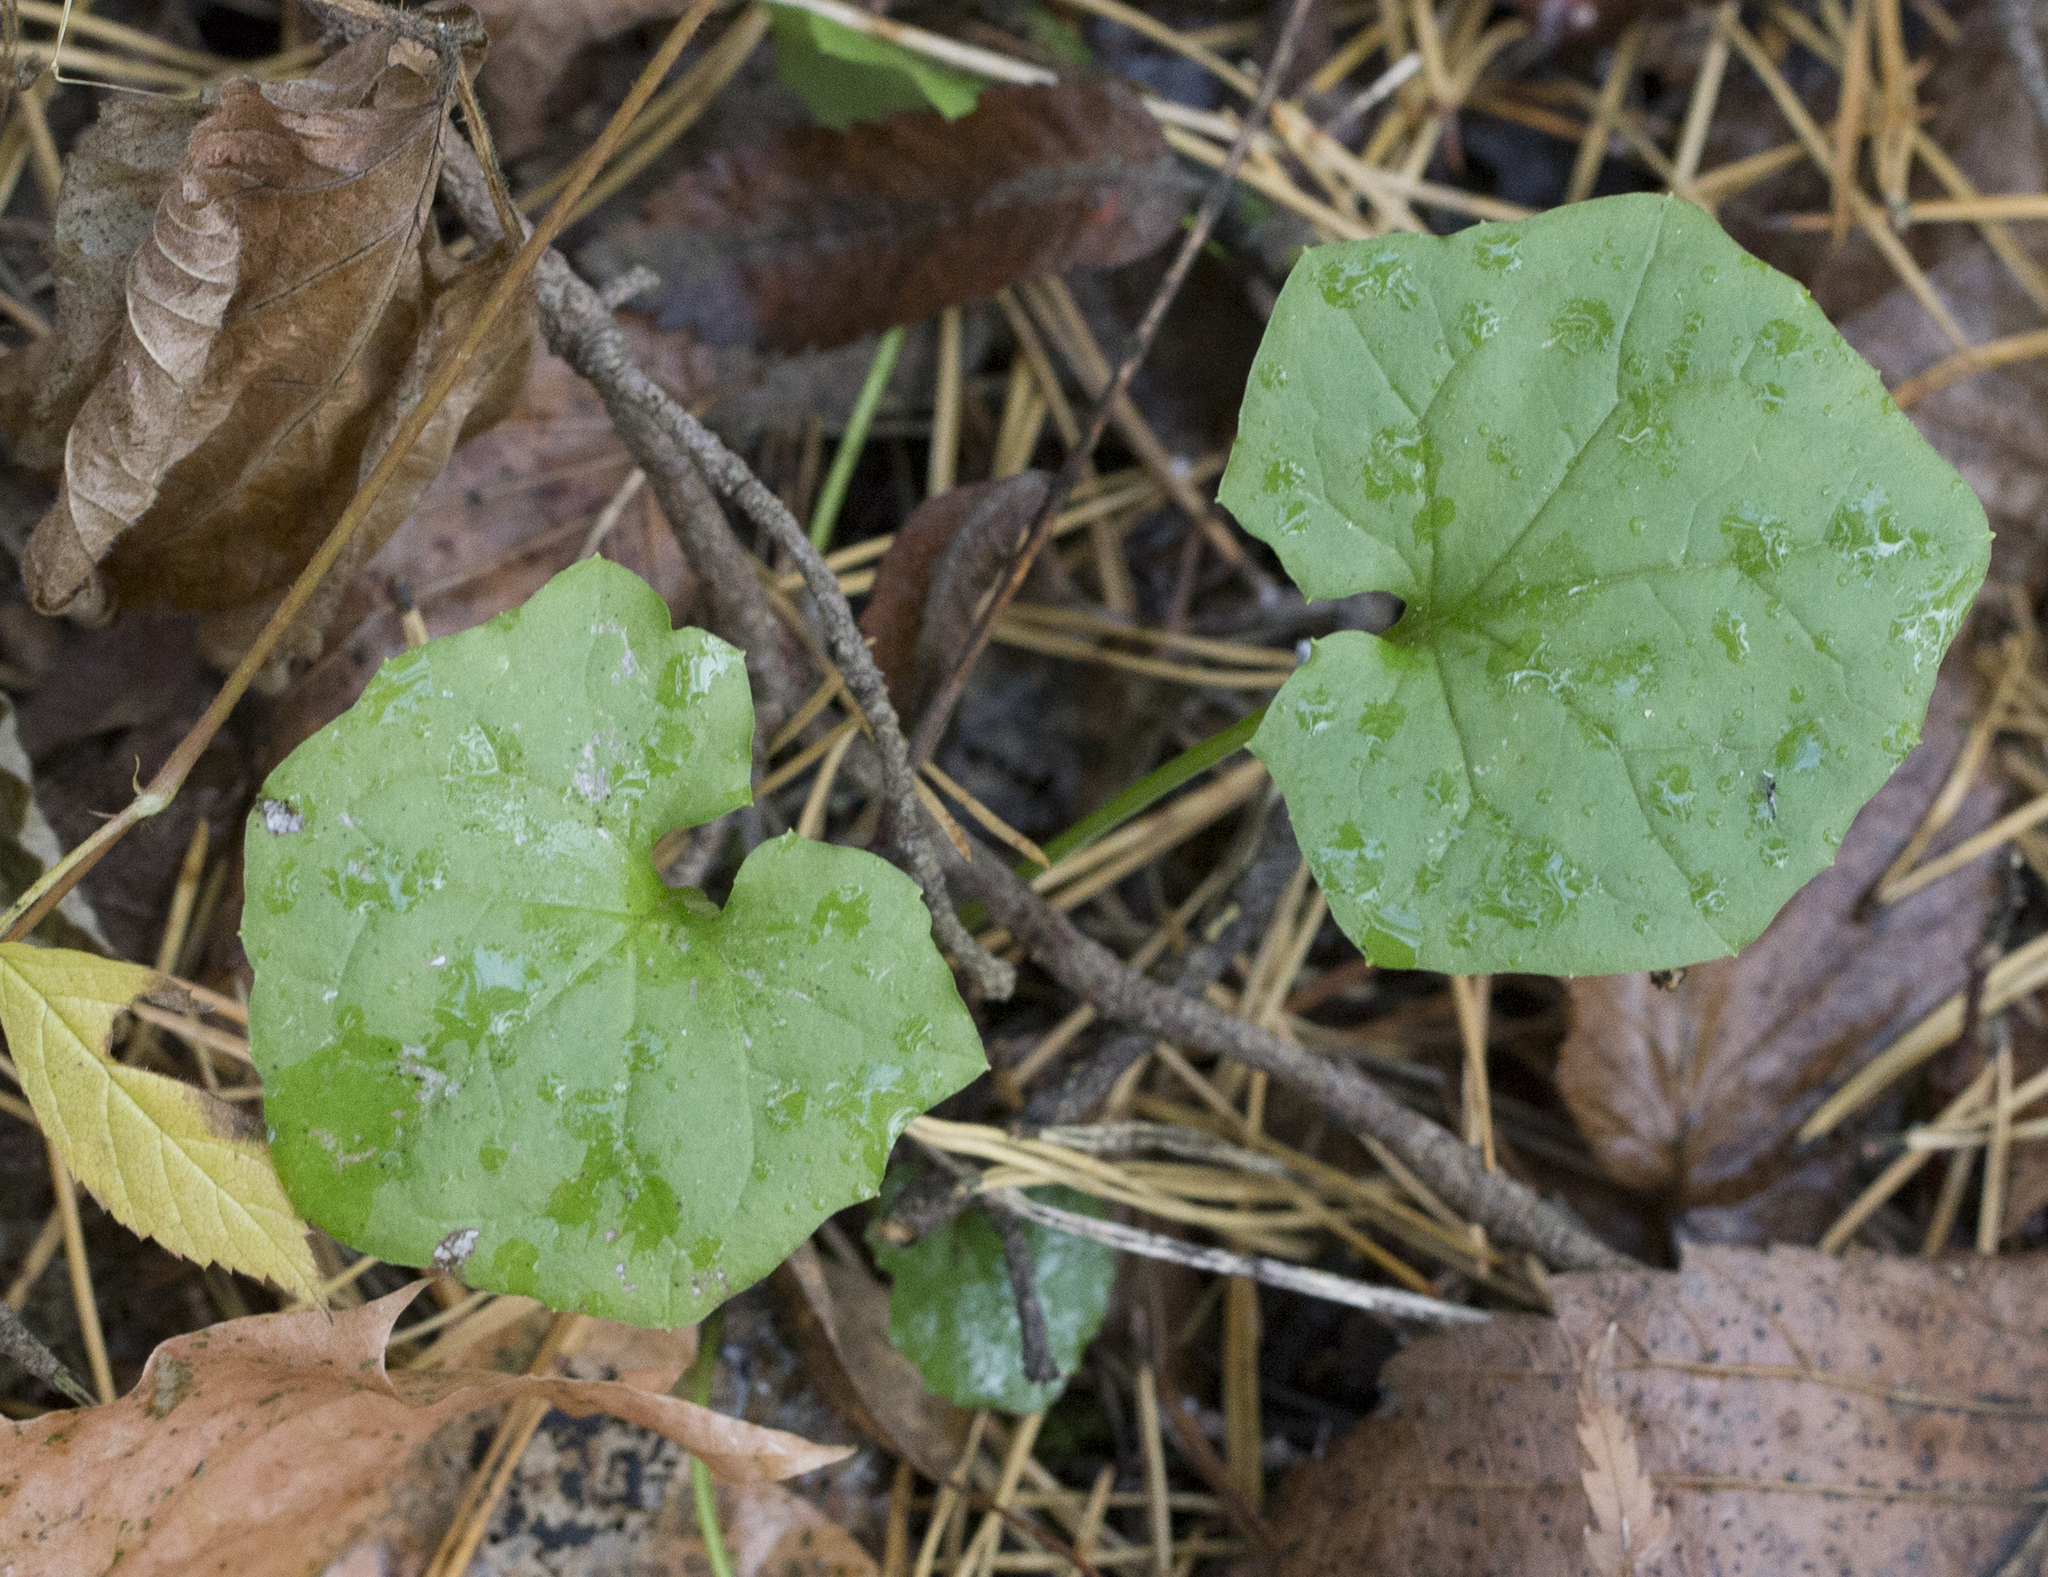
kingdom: Plantae
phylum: Tracheophyta
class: Magnoliopsida
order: Asterales
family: Asteraceae
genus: Mycelis
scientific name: Mycelis muralis
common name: Wall lettuce
